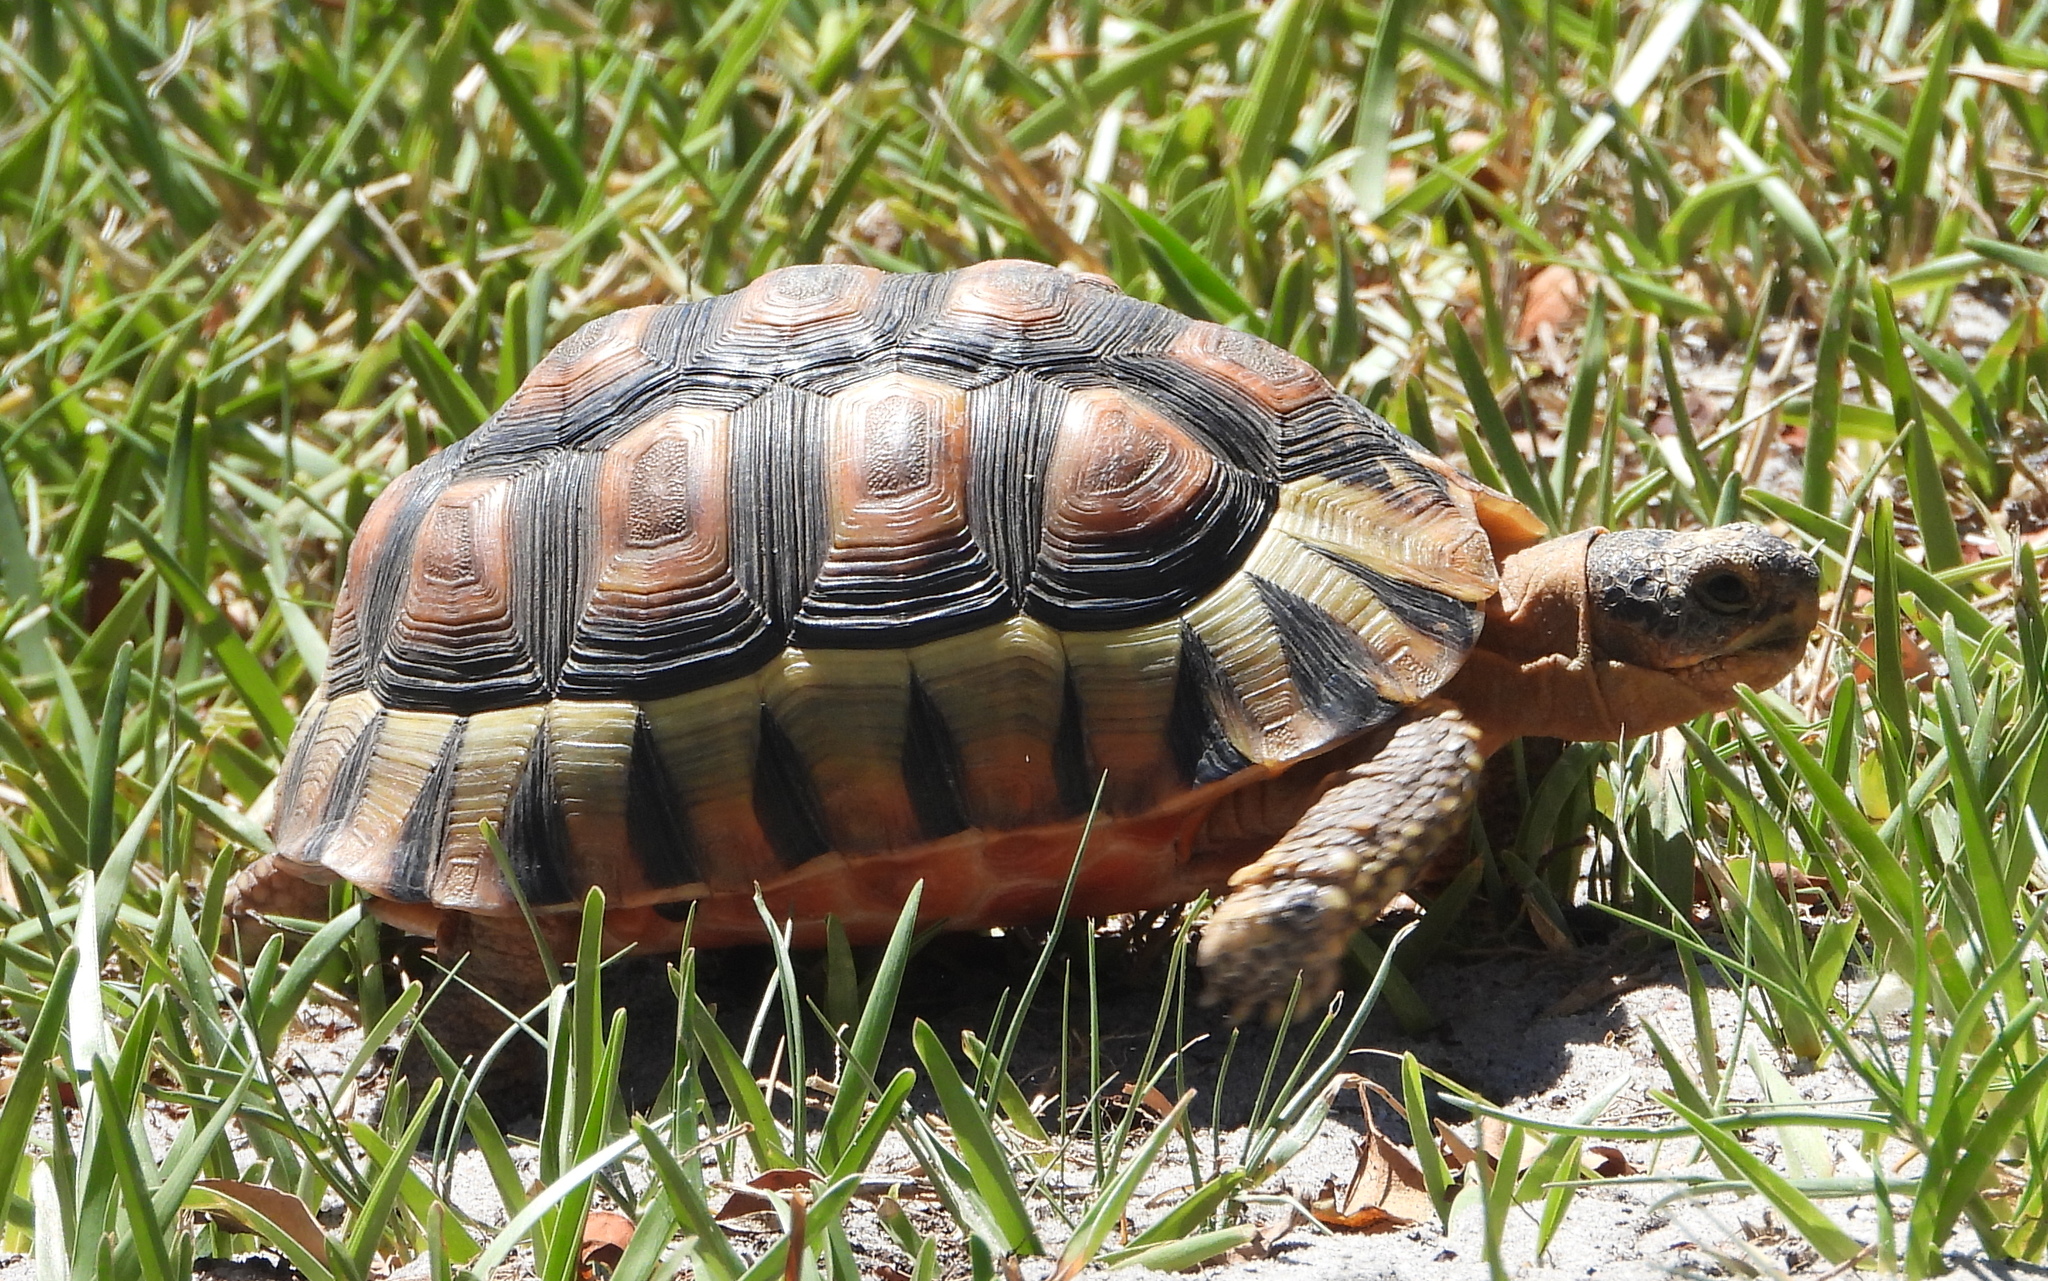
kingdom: Animalia
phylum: Chordata
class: Testudines
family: Testudinidae
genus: Chersina
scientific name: Chersina angulata
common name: South african bowsprit tortoise
